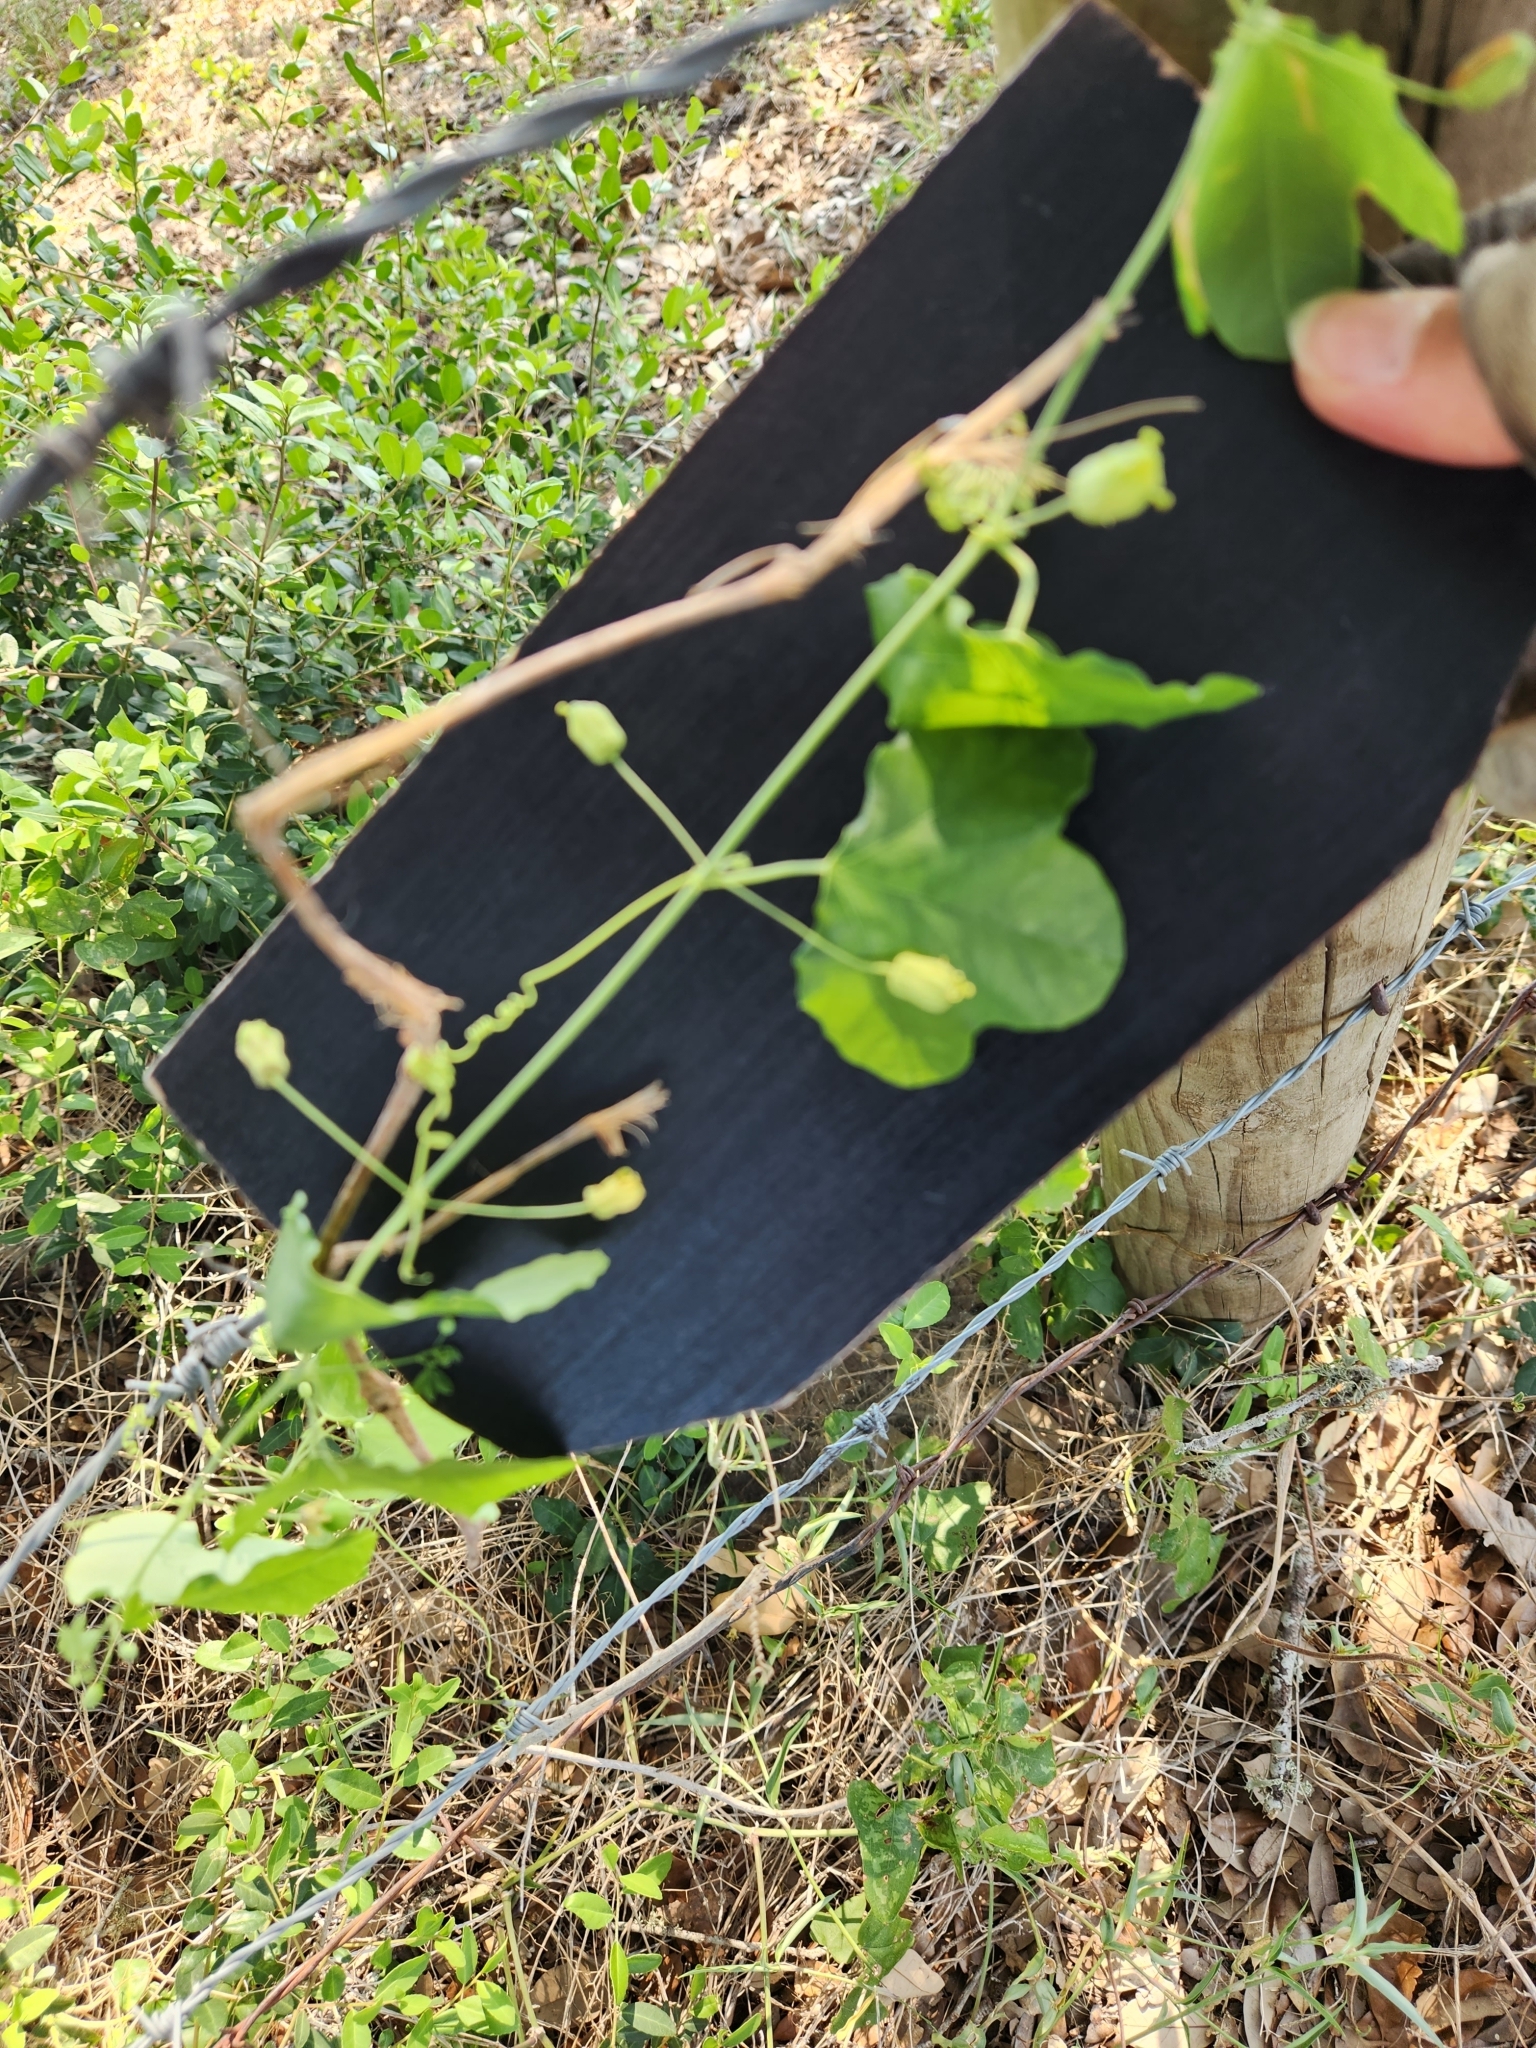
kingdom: Plantae
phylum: Tracheophyta
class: Magnoliopsida
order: Malpighiales
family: Passifloraceae
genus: Passiflora
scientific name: Passiflora lutea
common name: Yellow passionflower
